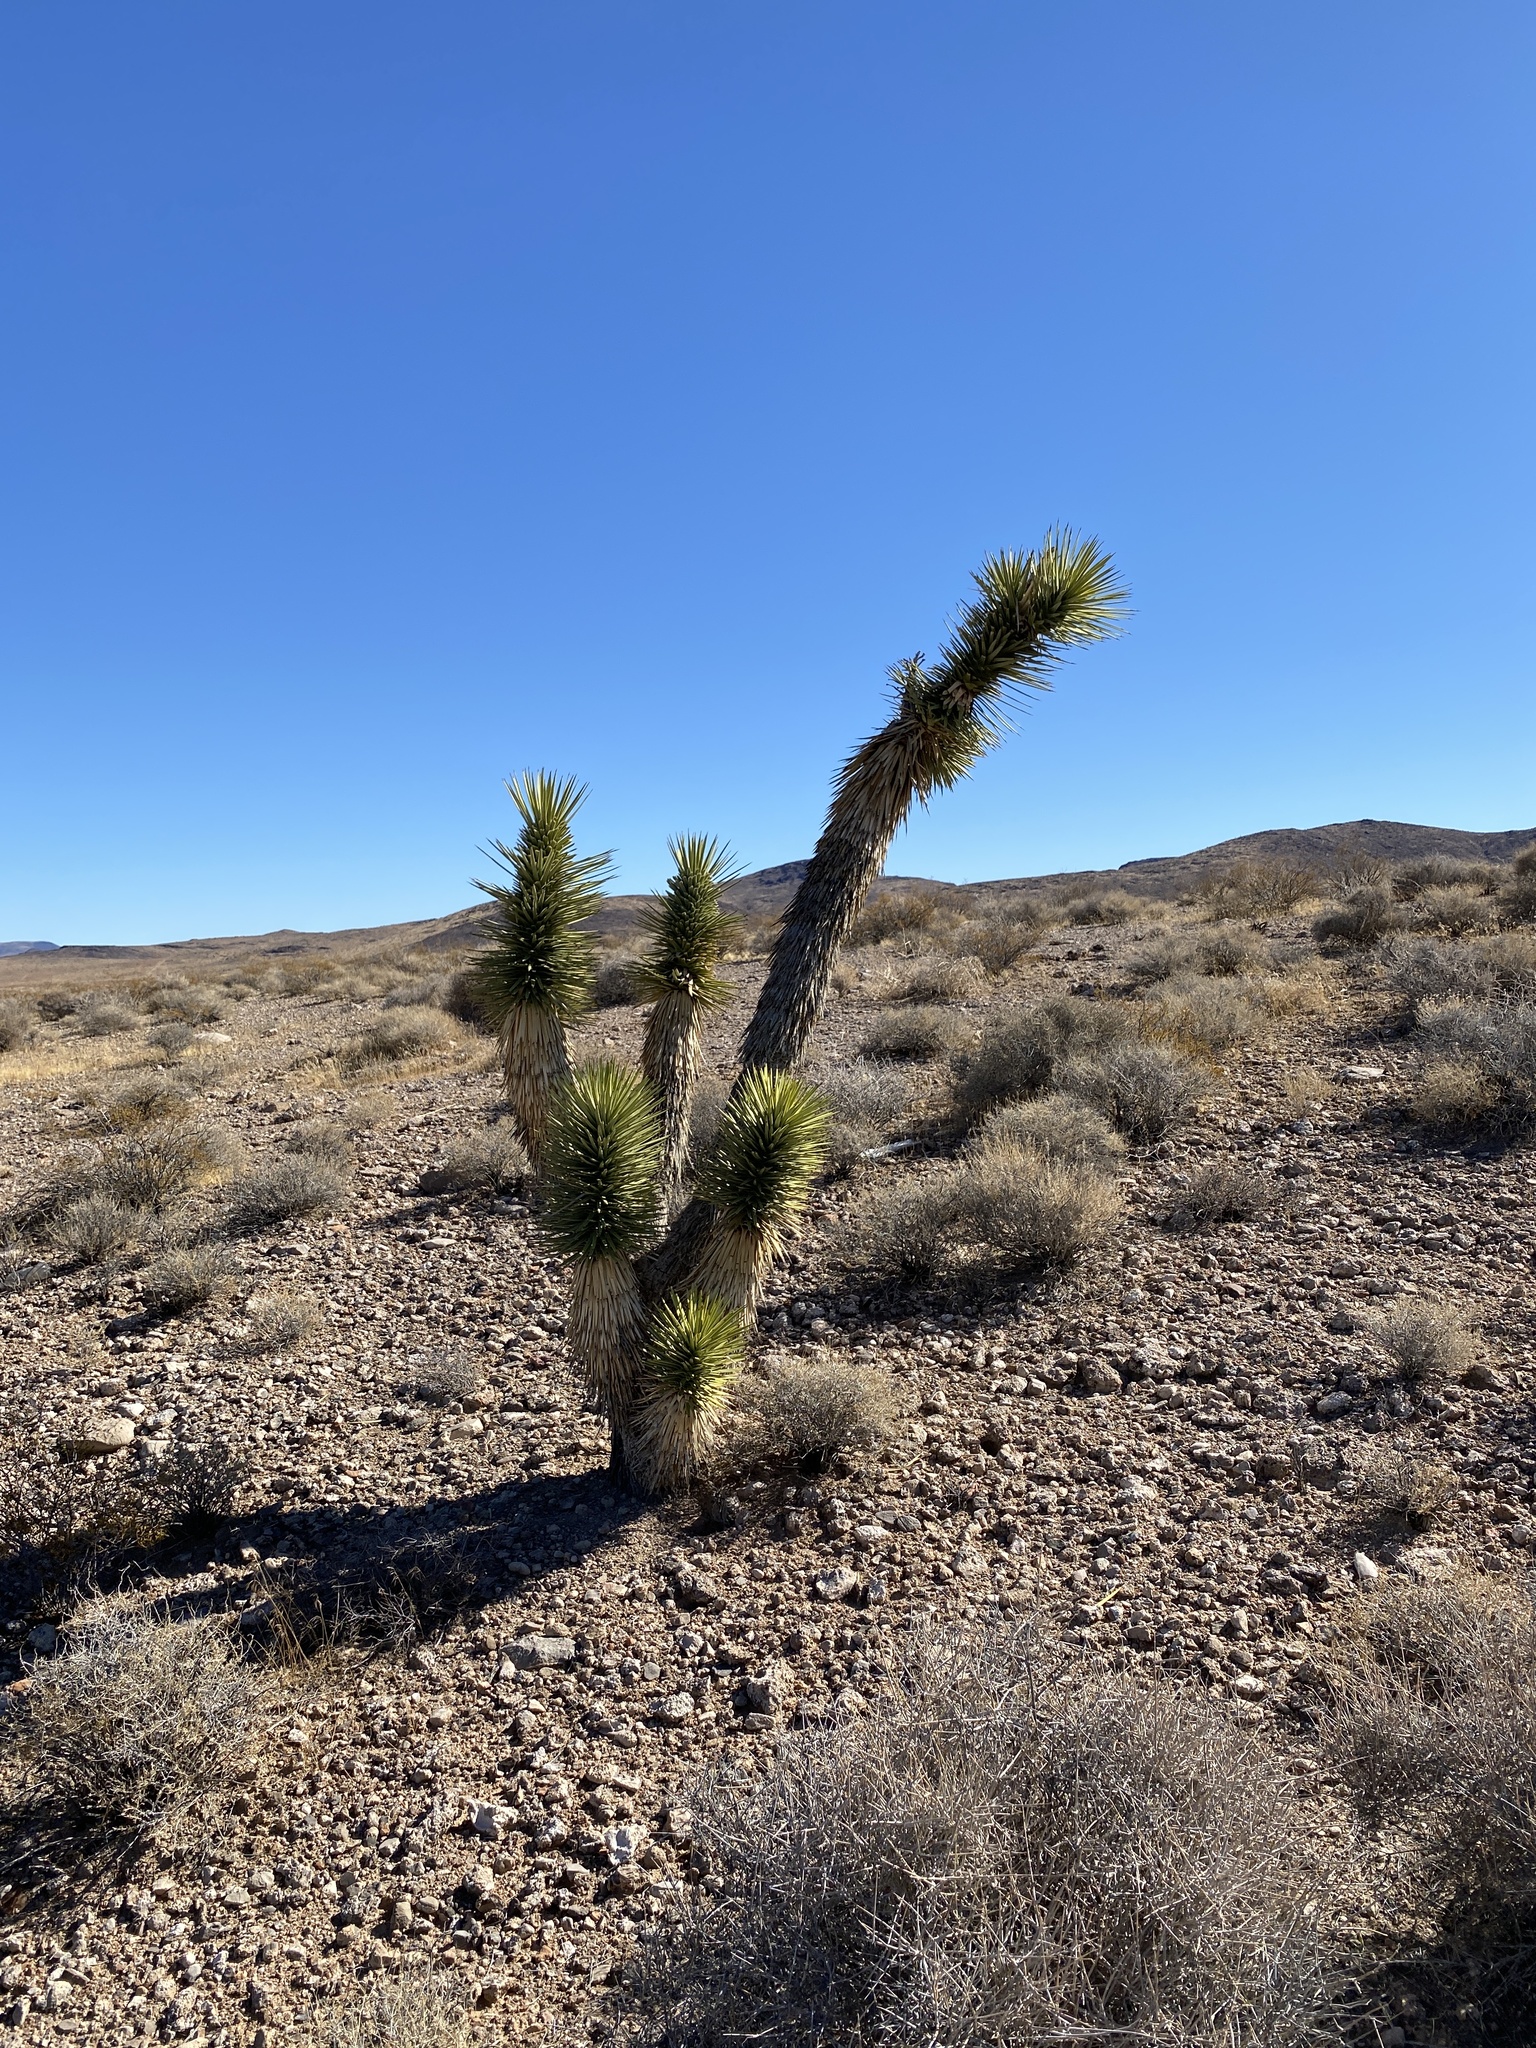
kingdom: Plantae
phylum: Tracheophyta
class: Liliopsida
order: Asparagales
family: Asparagaceae
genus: Yucca
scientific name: Yucca brevifolia
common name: Joshua tree
